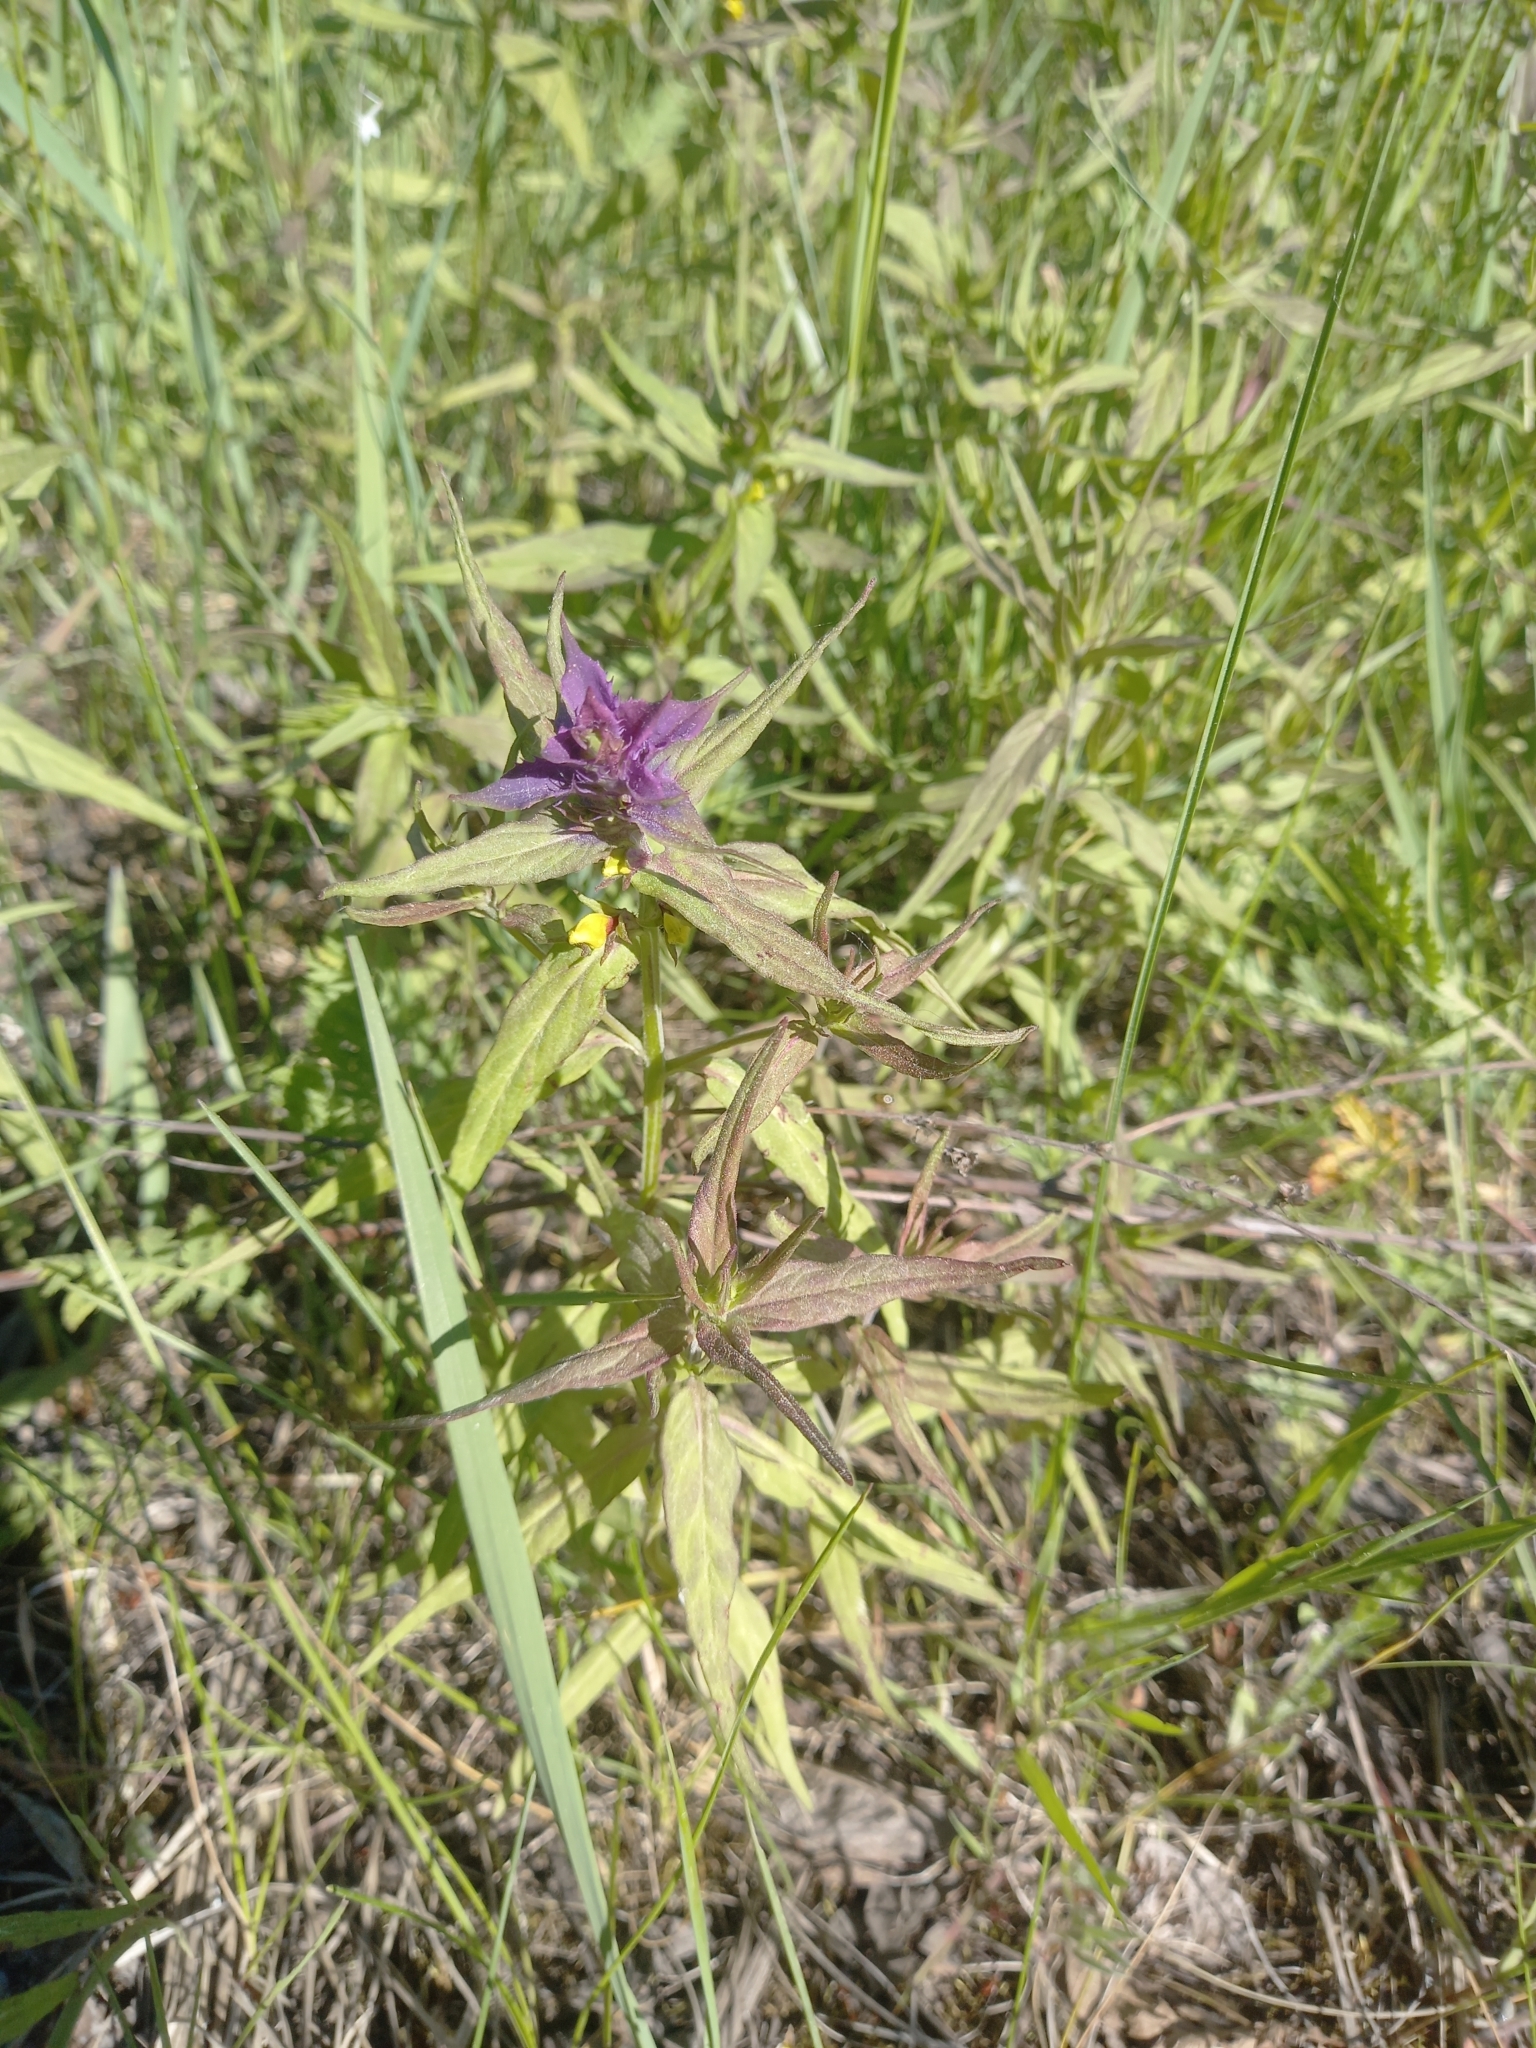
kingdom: Plantae
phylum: Tracheophyta
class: Magnoliopsida
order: Lamiales
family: Orobanchaceae
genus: Melampyrum
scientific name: Melampyrum nemorosum
